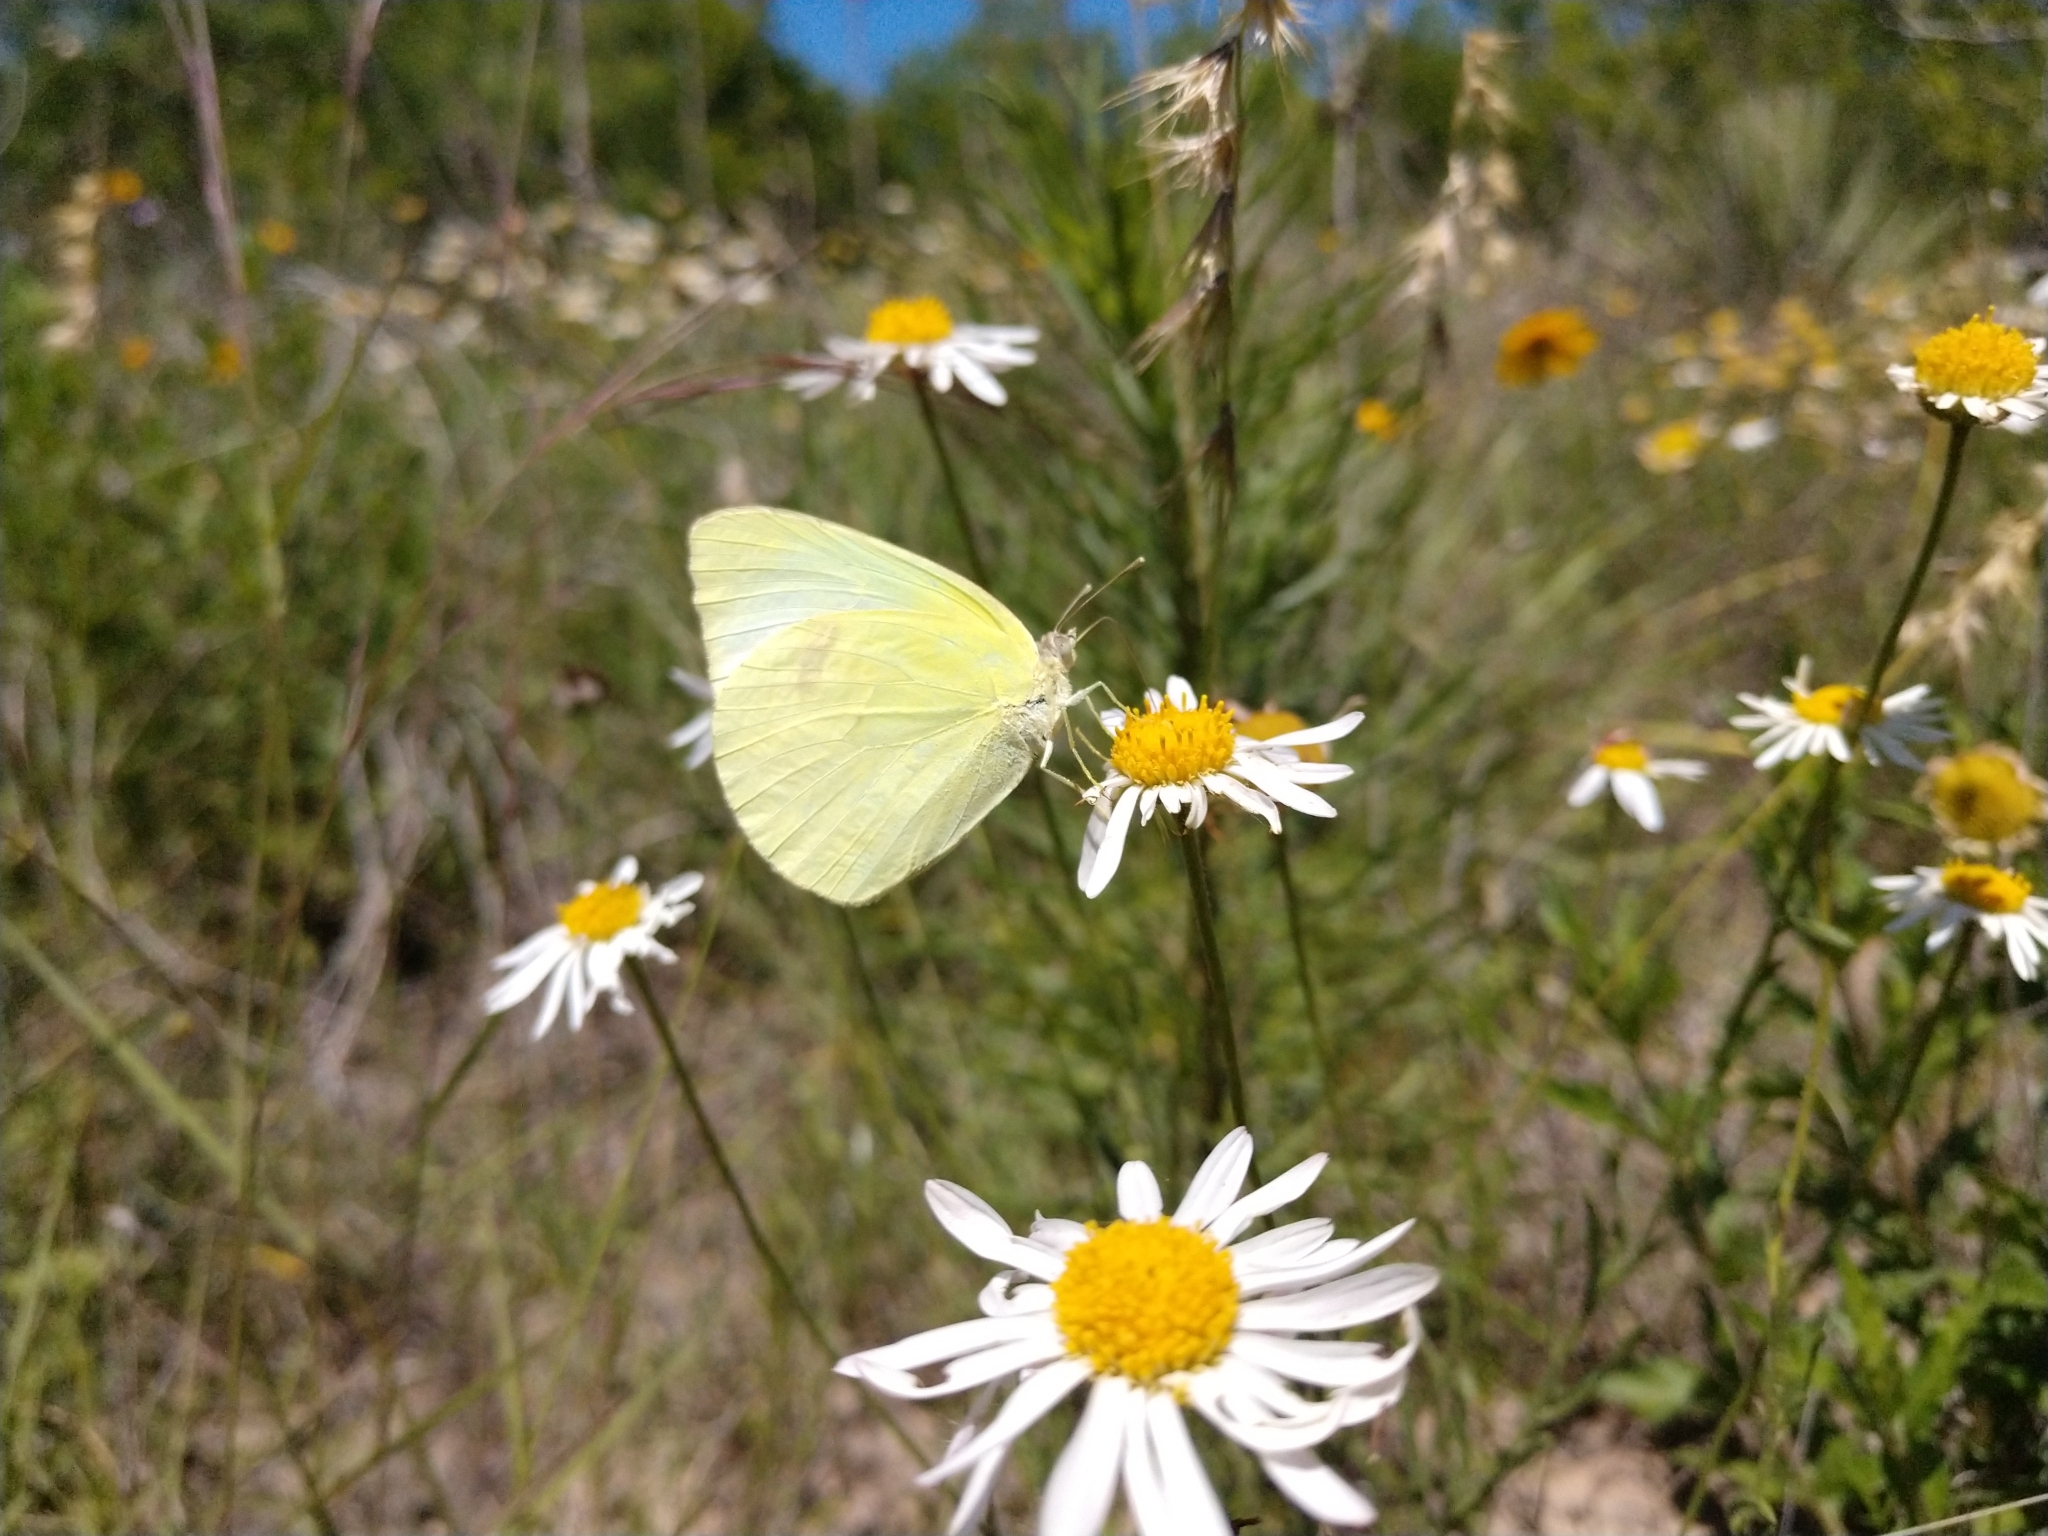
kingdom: Animalia
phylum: Arthropoda
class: Insecta
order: Lepidoptera
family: Pieridae
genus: Kricogonia
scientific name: Kricogonia lyside
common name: Guayacan sulphur,
